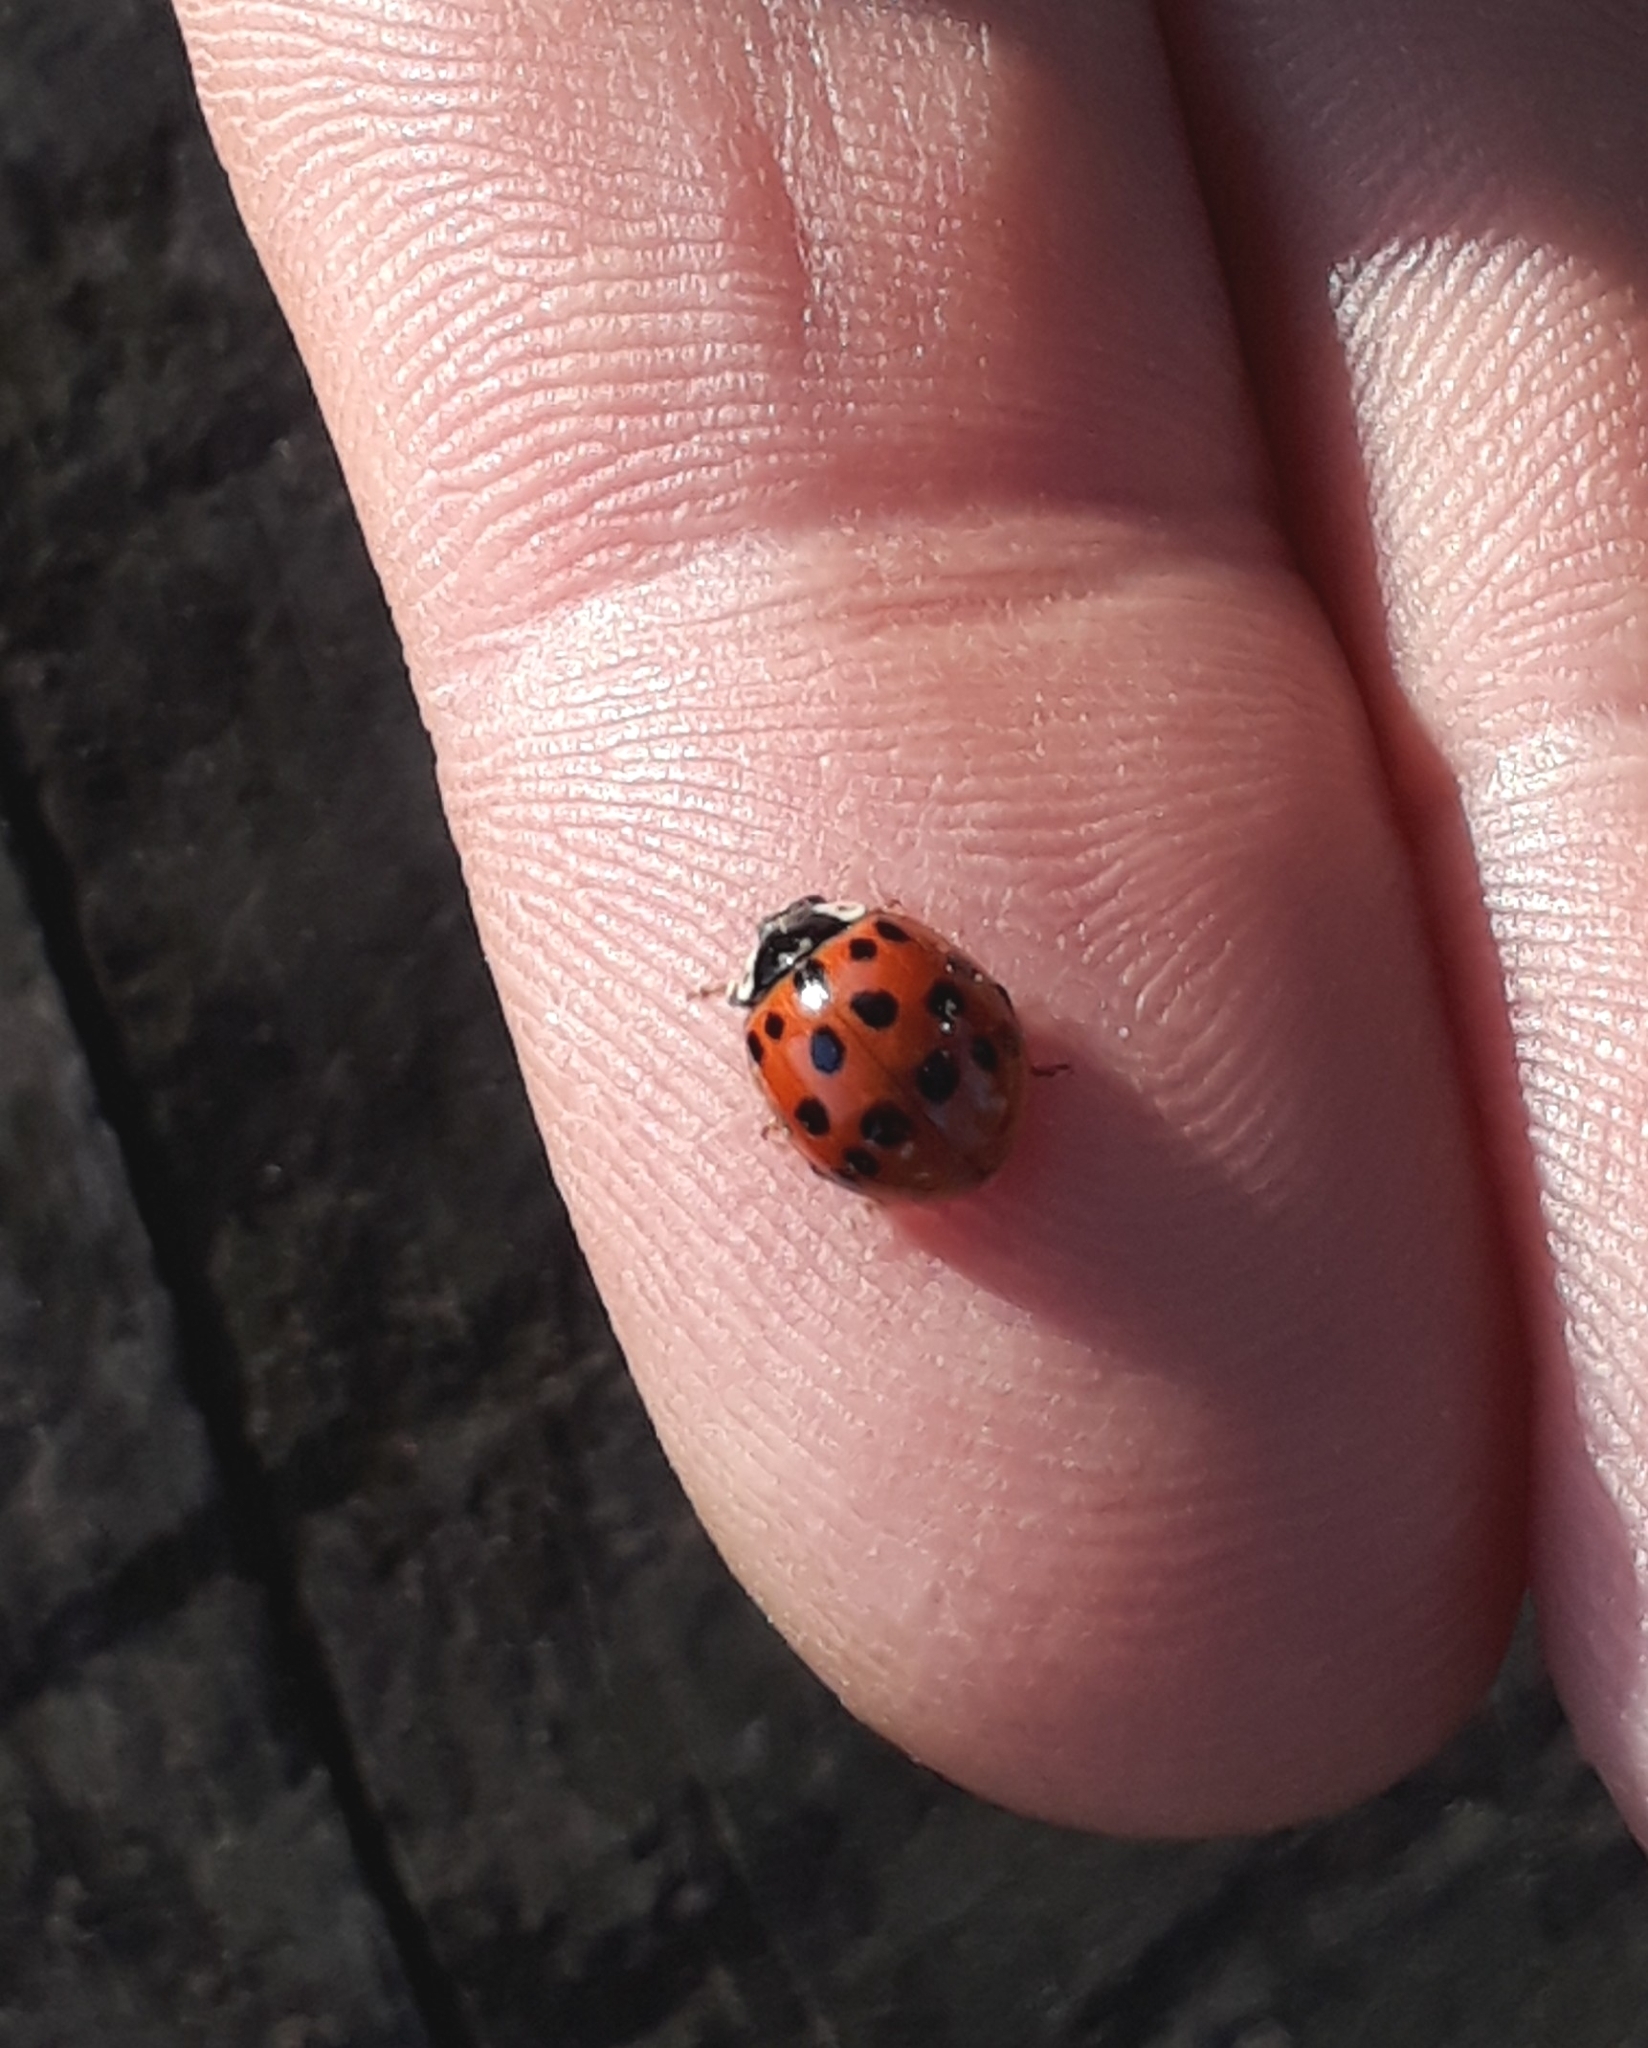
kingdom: Animalia
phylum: Arthropoda
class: Insecta
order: Coleoptera
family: Coccinellidae
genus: Harmonia
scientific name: Harmonia axyridis
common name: Harlequin ladybird
